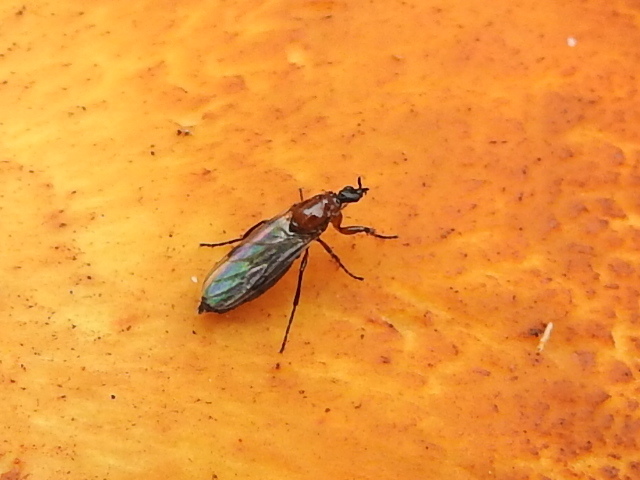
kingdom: Animalia
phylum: Arthropoda
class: Insecta
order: Diptera
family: Bibionidae
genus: Dilophus
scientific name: Dilophus tibialis
